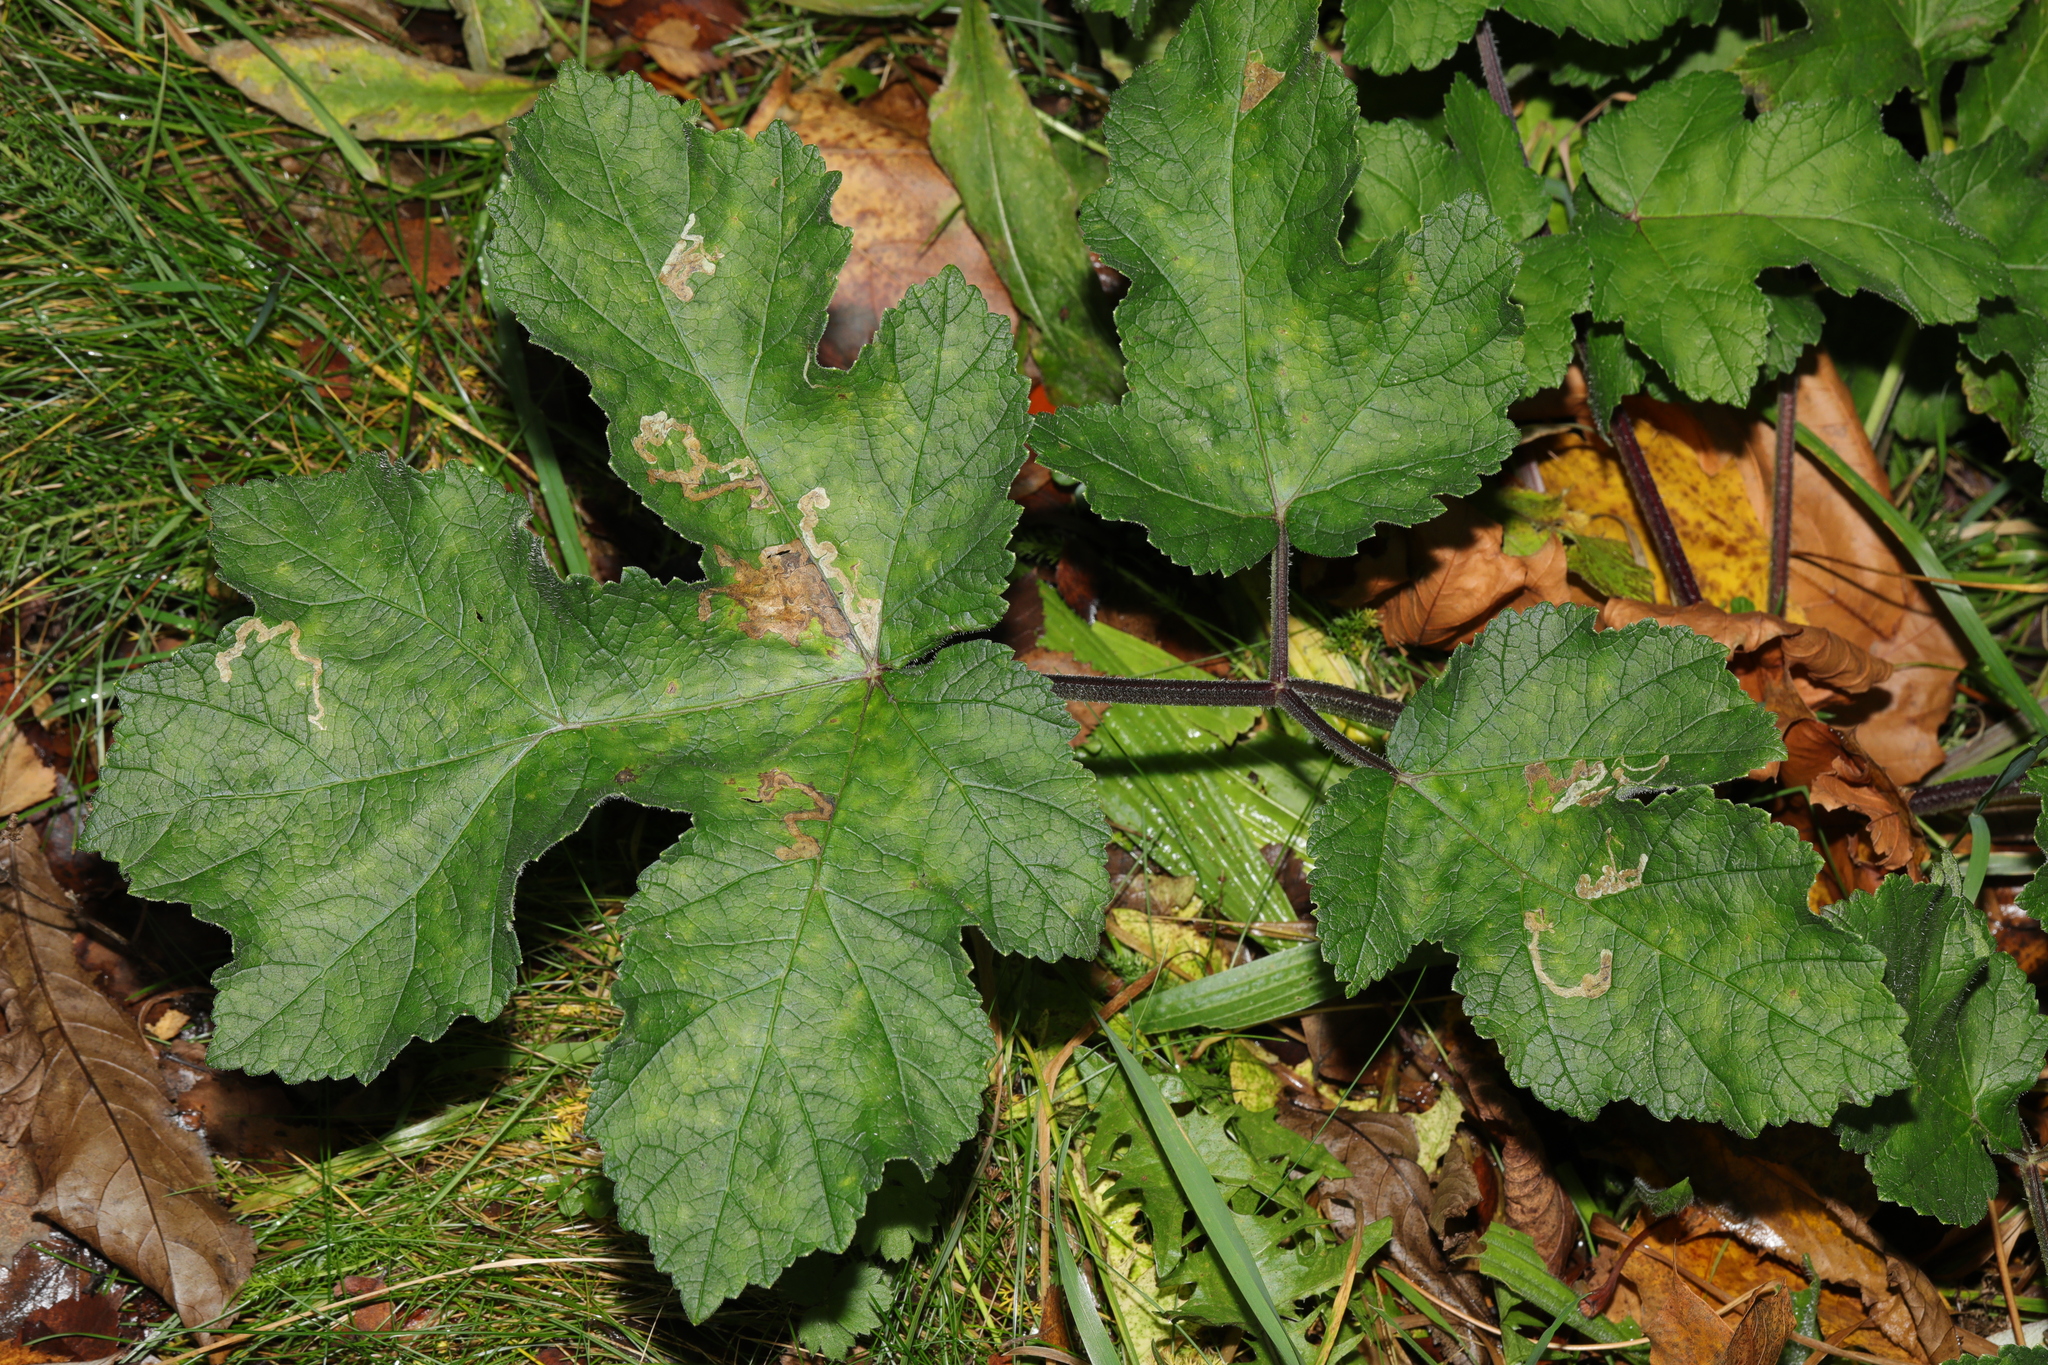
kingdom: Plantae
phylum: Tracheophyta
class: Magnoliopsida
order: Apiales
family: Apiaceae
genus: Heracleum
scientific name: Heracleum sphondylium
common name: Hogweed
